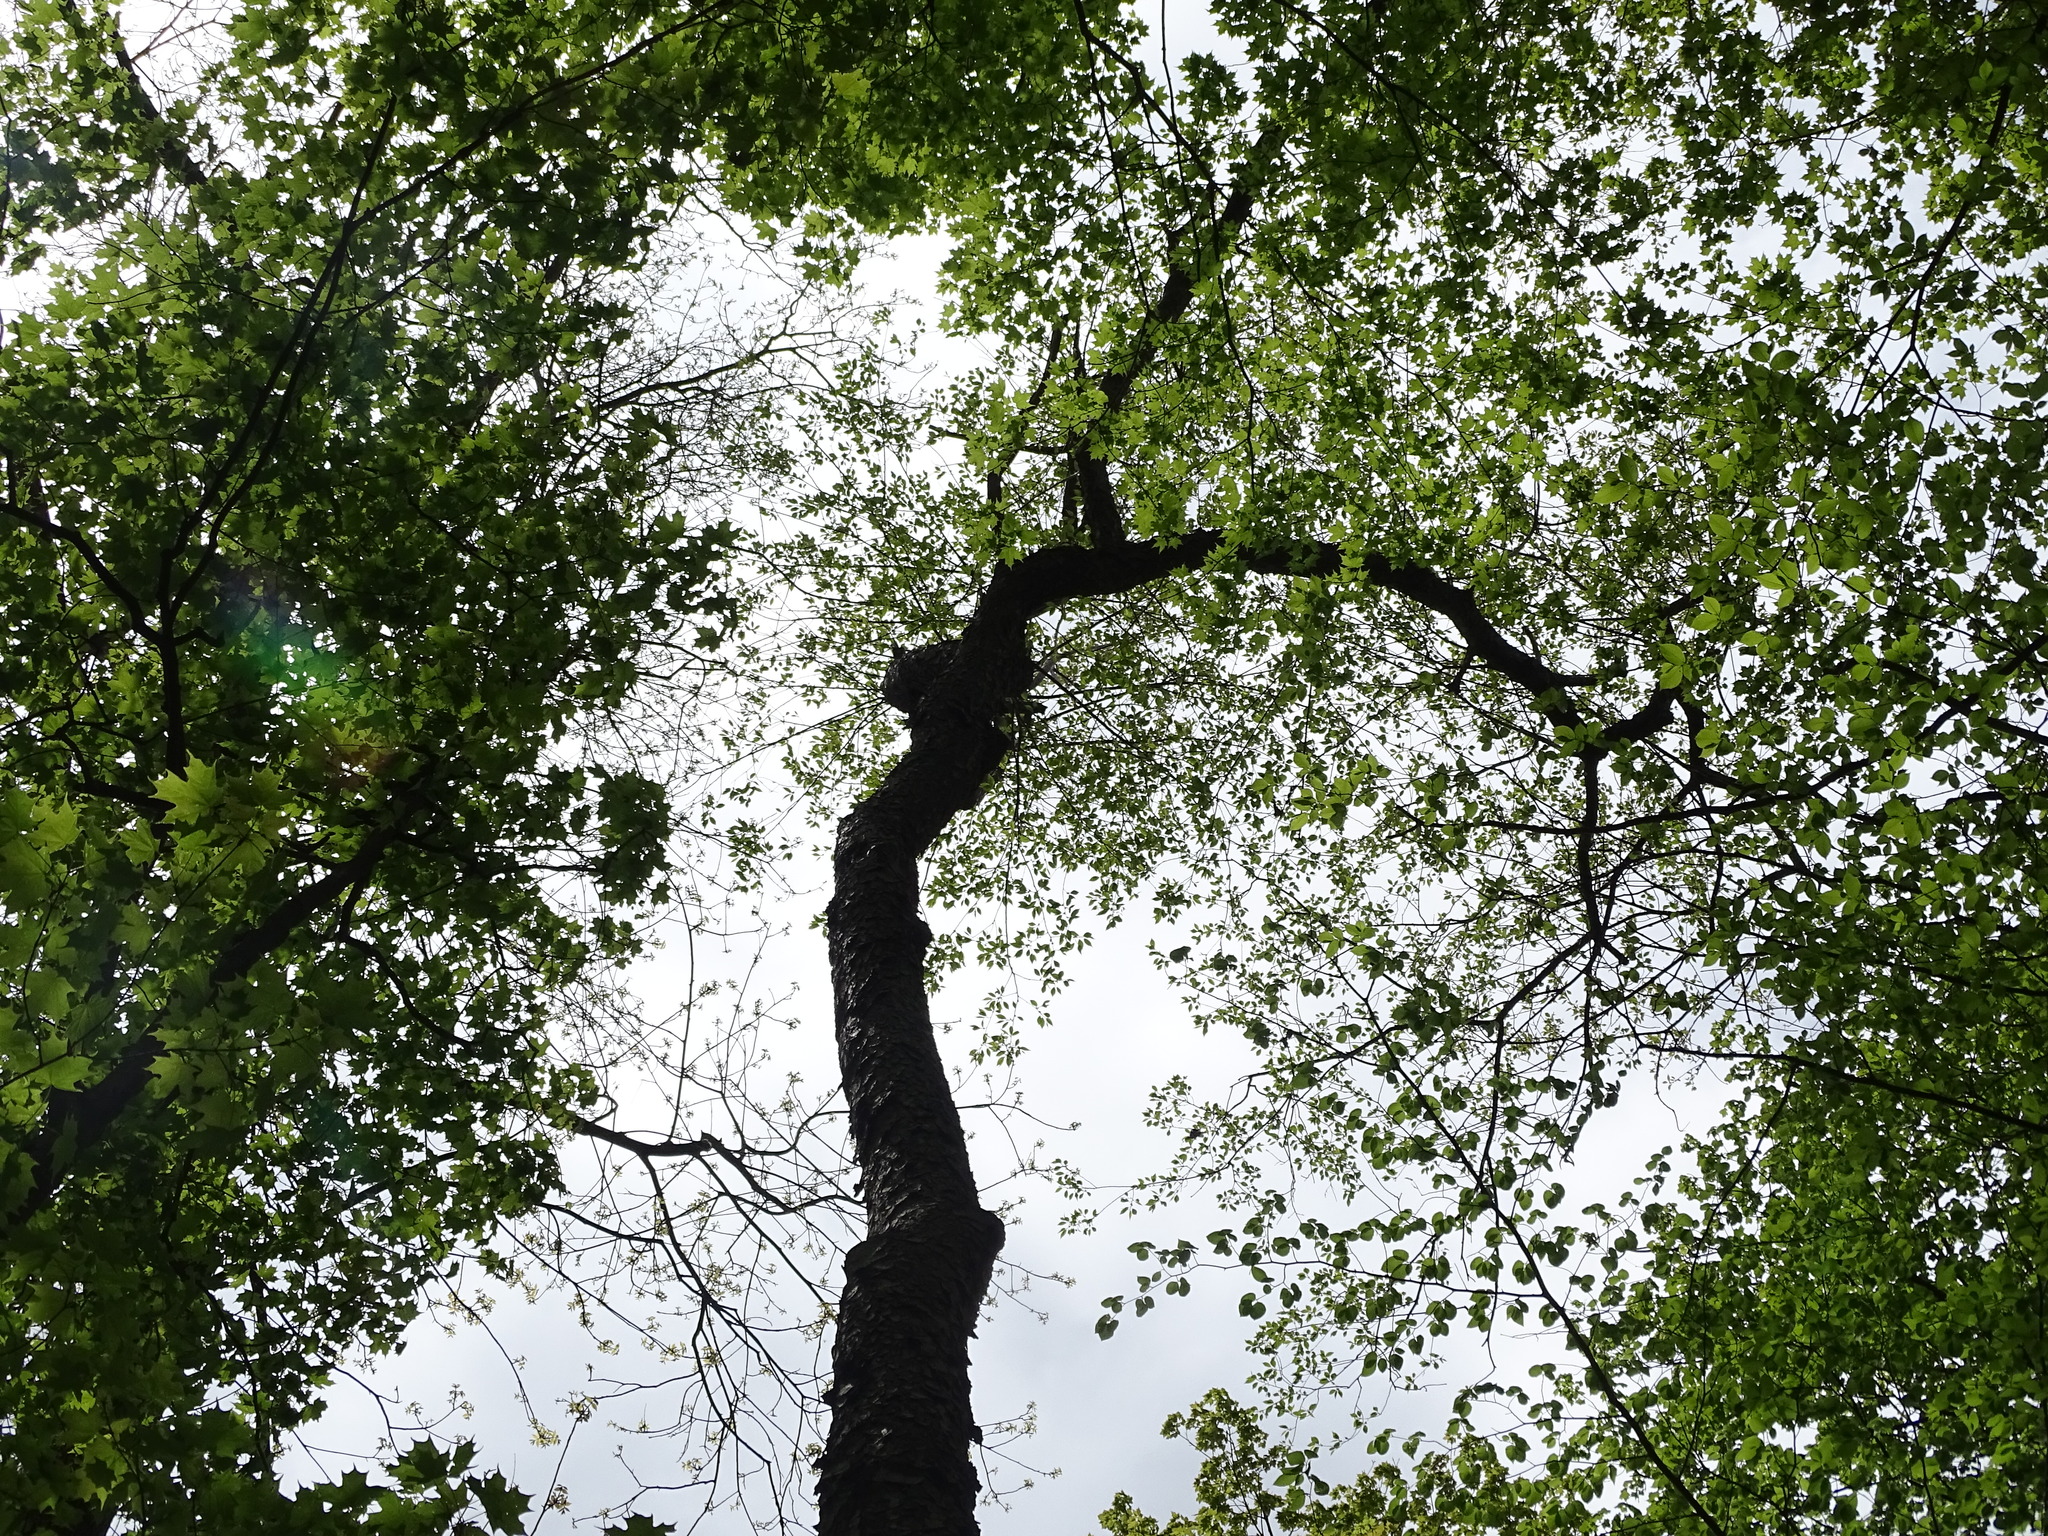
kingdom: Plantae
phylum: Tracheophyta
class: Magnoliopsida
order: Rosales
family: Rosaceae
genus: Prunus
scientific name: Prunus serotina
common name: Black cherry
